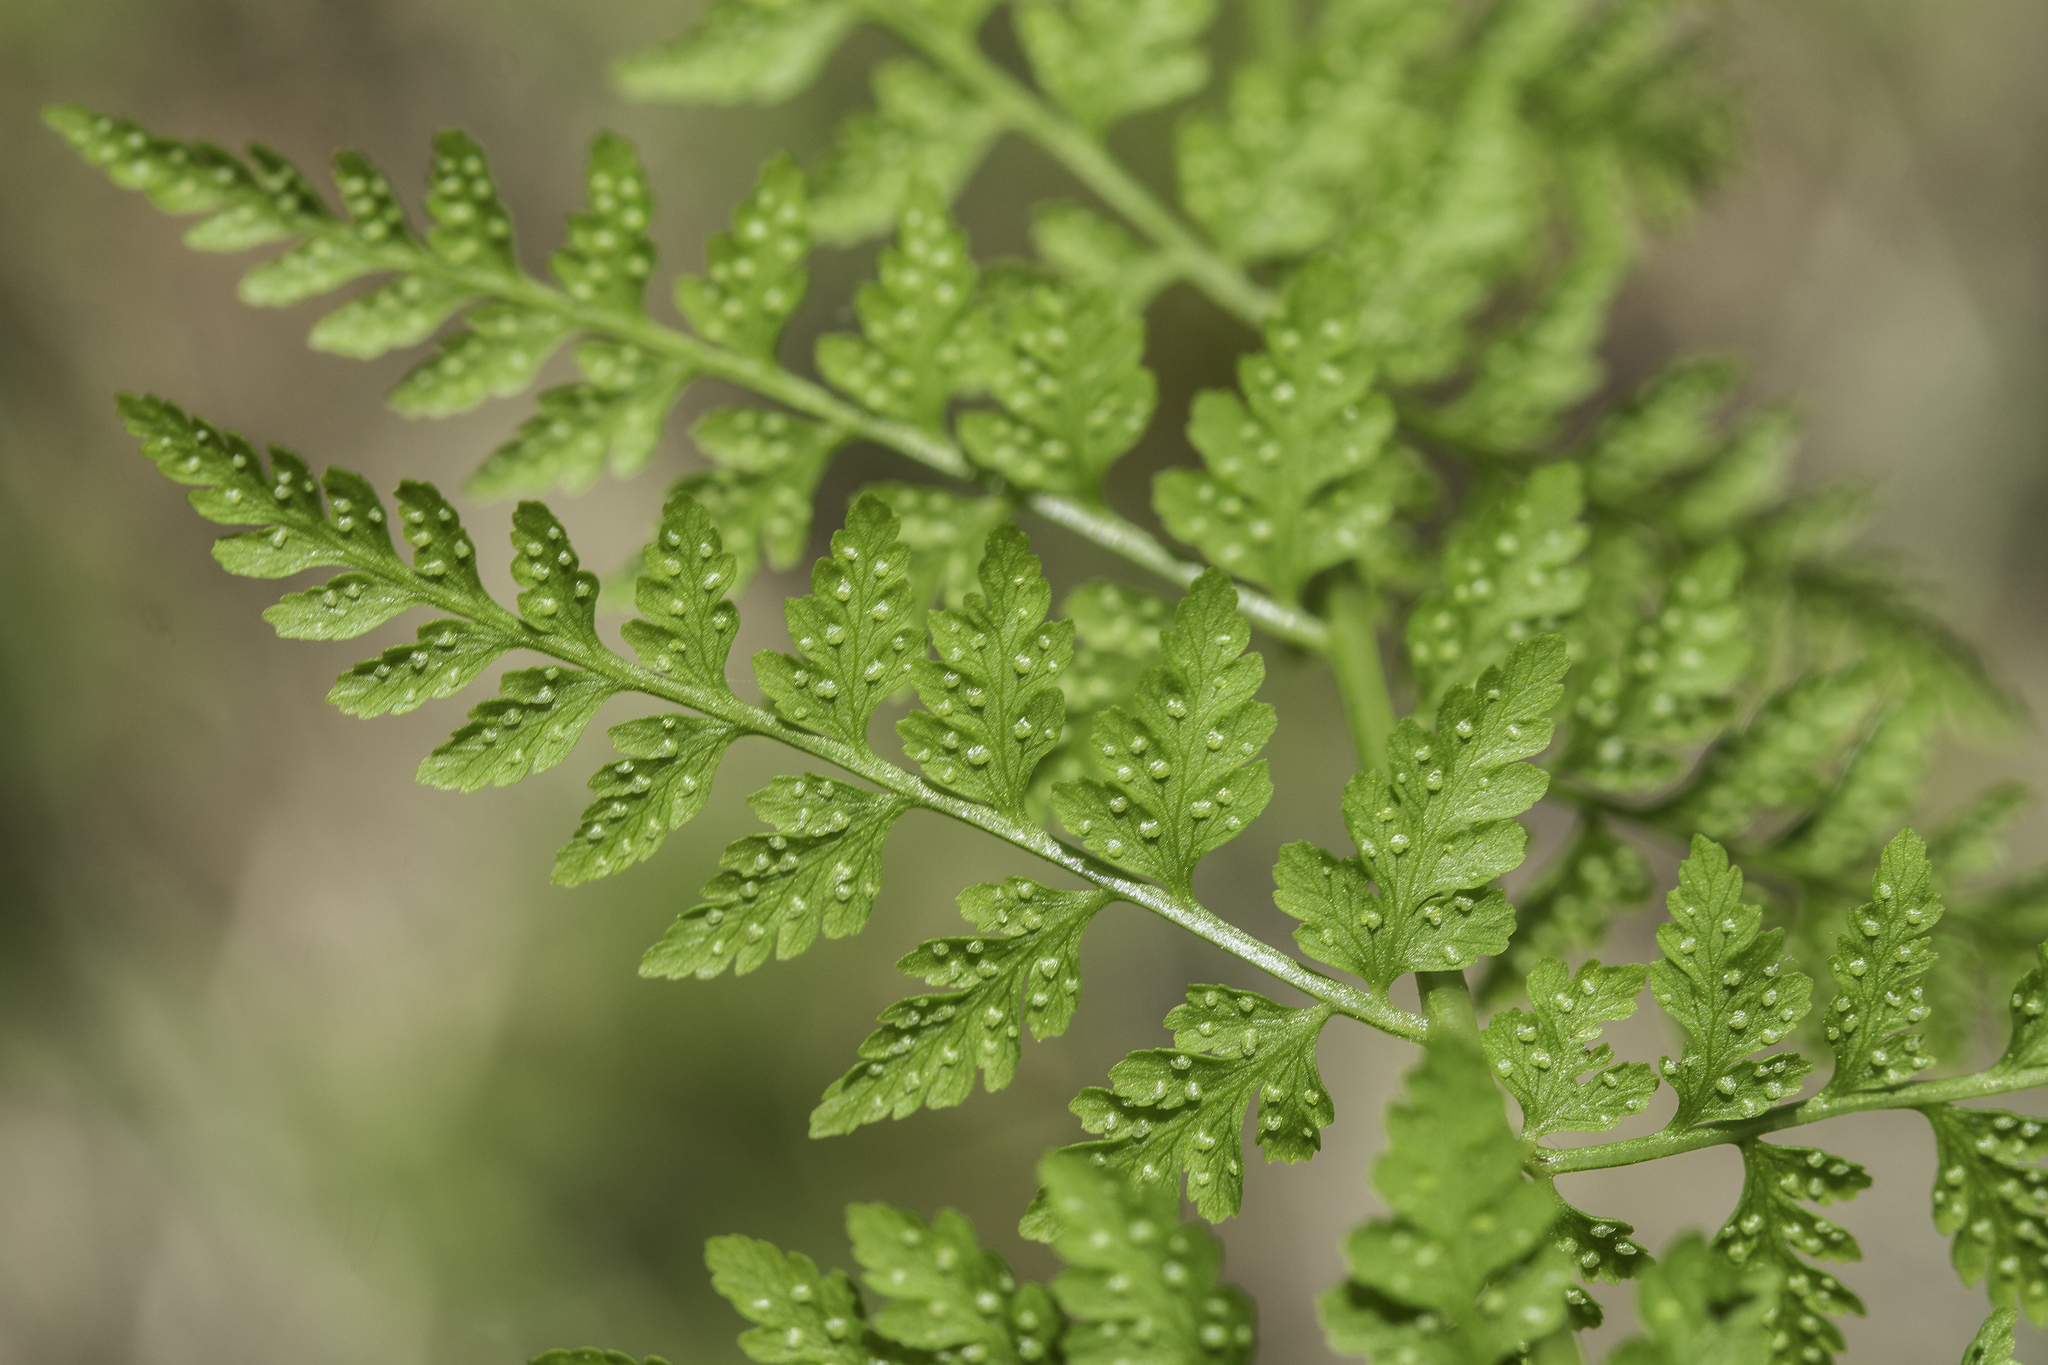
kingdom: Plantae
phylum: Tracheophyta
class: Polypodiopsida
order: Polypodiales
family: Cystopteridaceae
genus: Cystopteris
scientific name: Cystopteris reevesiana
